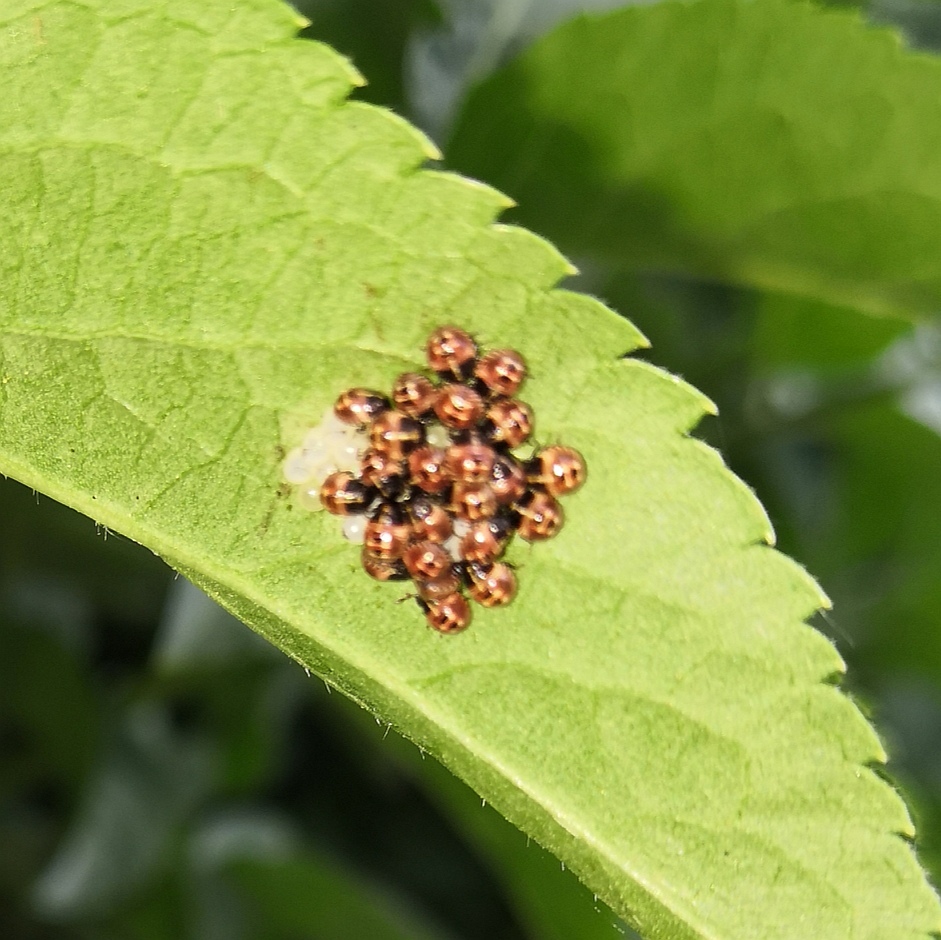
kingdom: Animalia
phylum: Arthropoda
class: Insecta
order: Hemiptera
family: Pentatomidae
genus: Palomena
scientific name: Palomena prasina
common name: Green shieldbug
